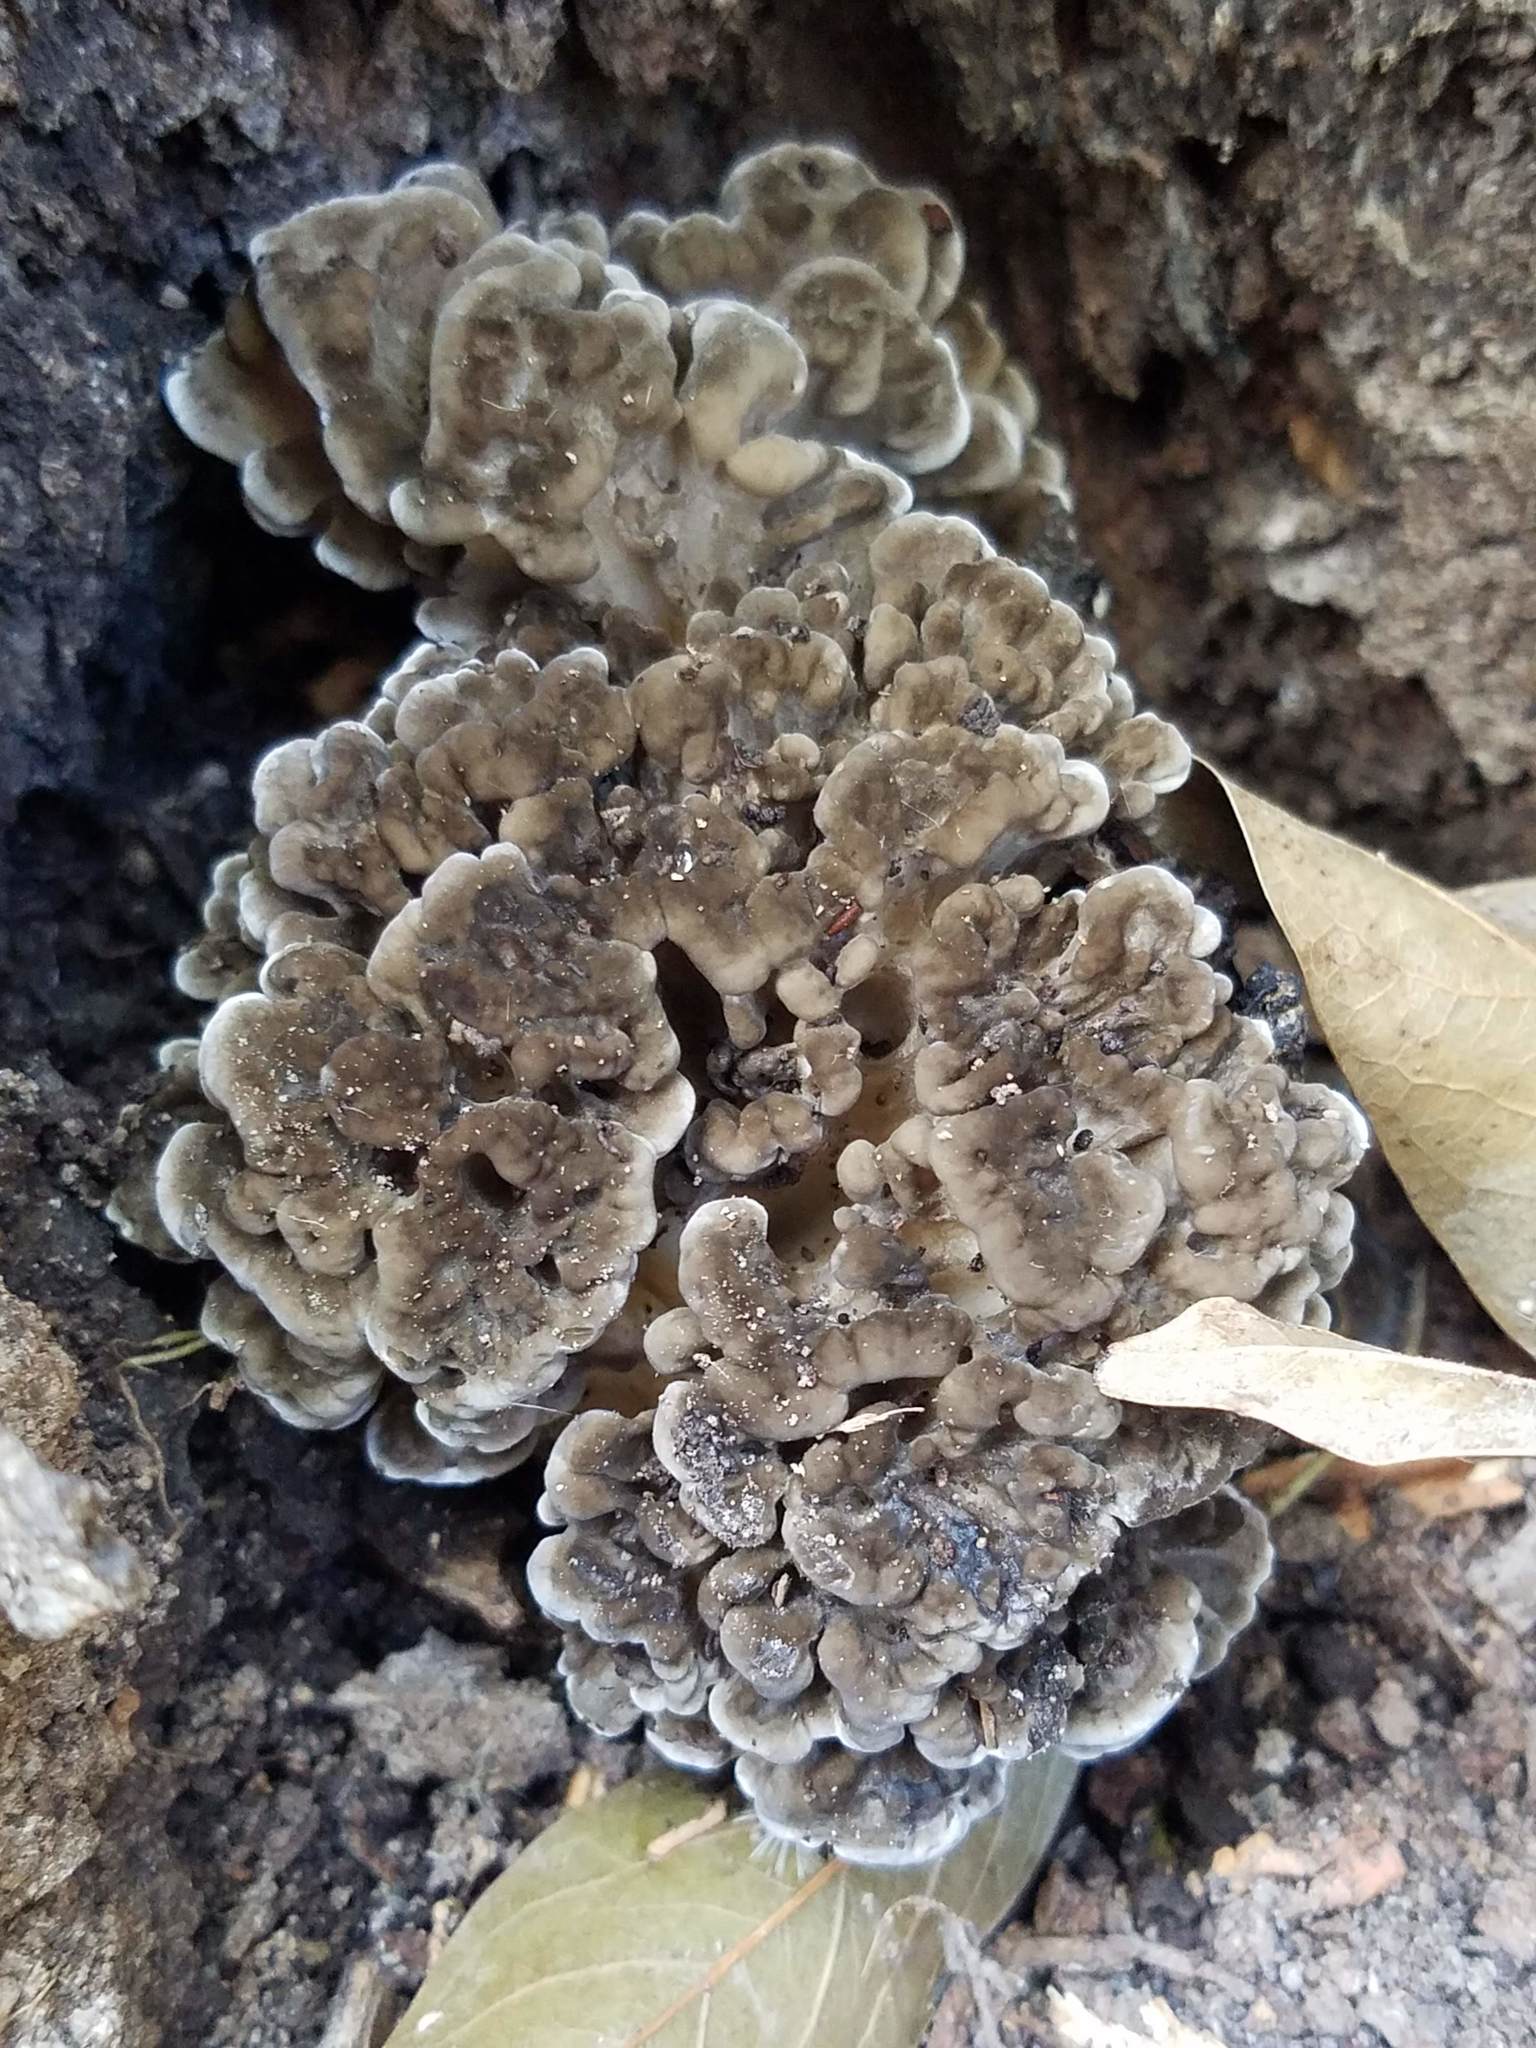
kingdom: Fungi
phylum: Basidiomycota
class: Agaricomycetes
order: Polyporales
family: Grifolaceae
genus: Grifola
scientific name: Grifola frondosa
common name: Hen of the woods
